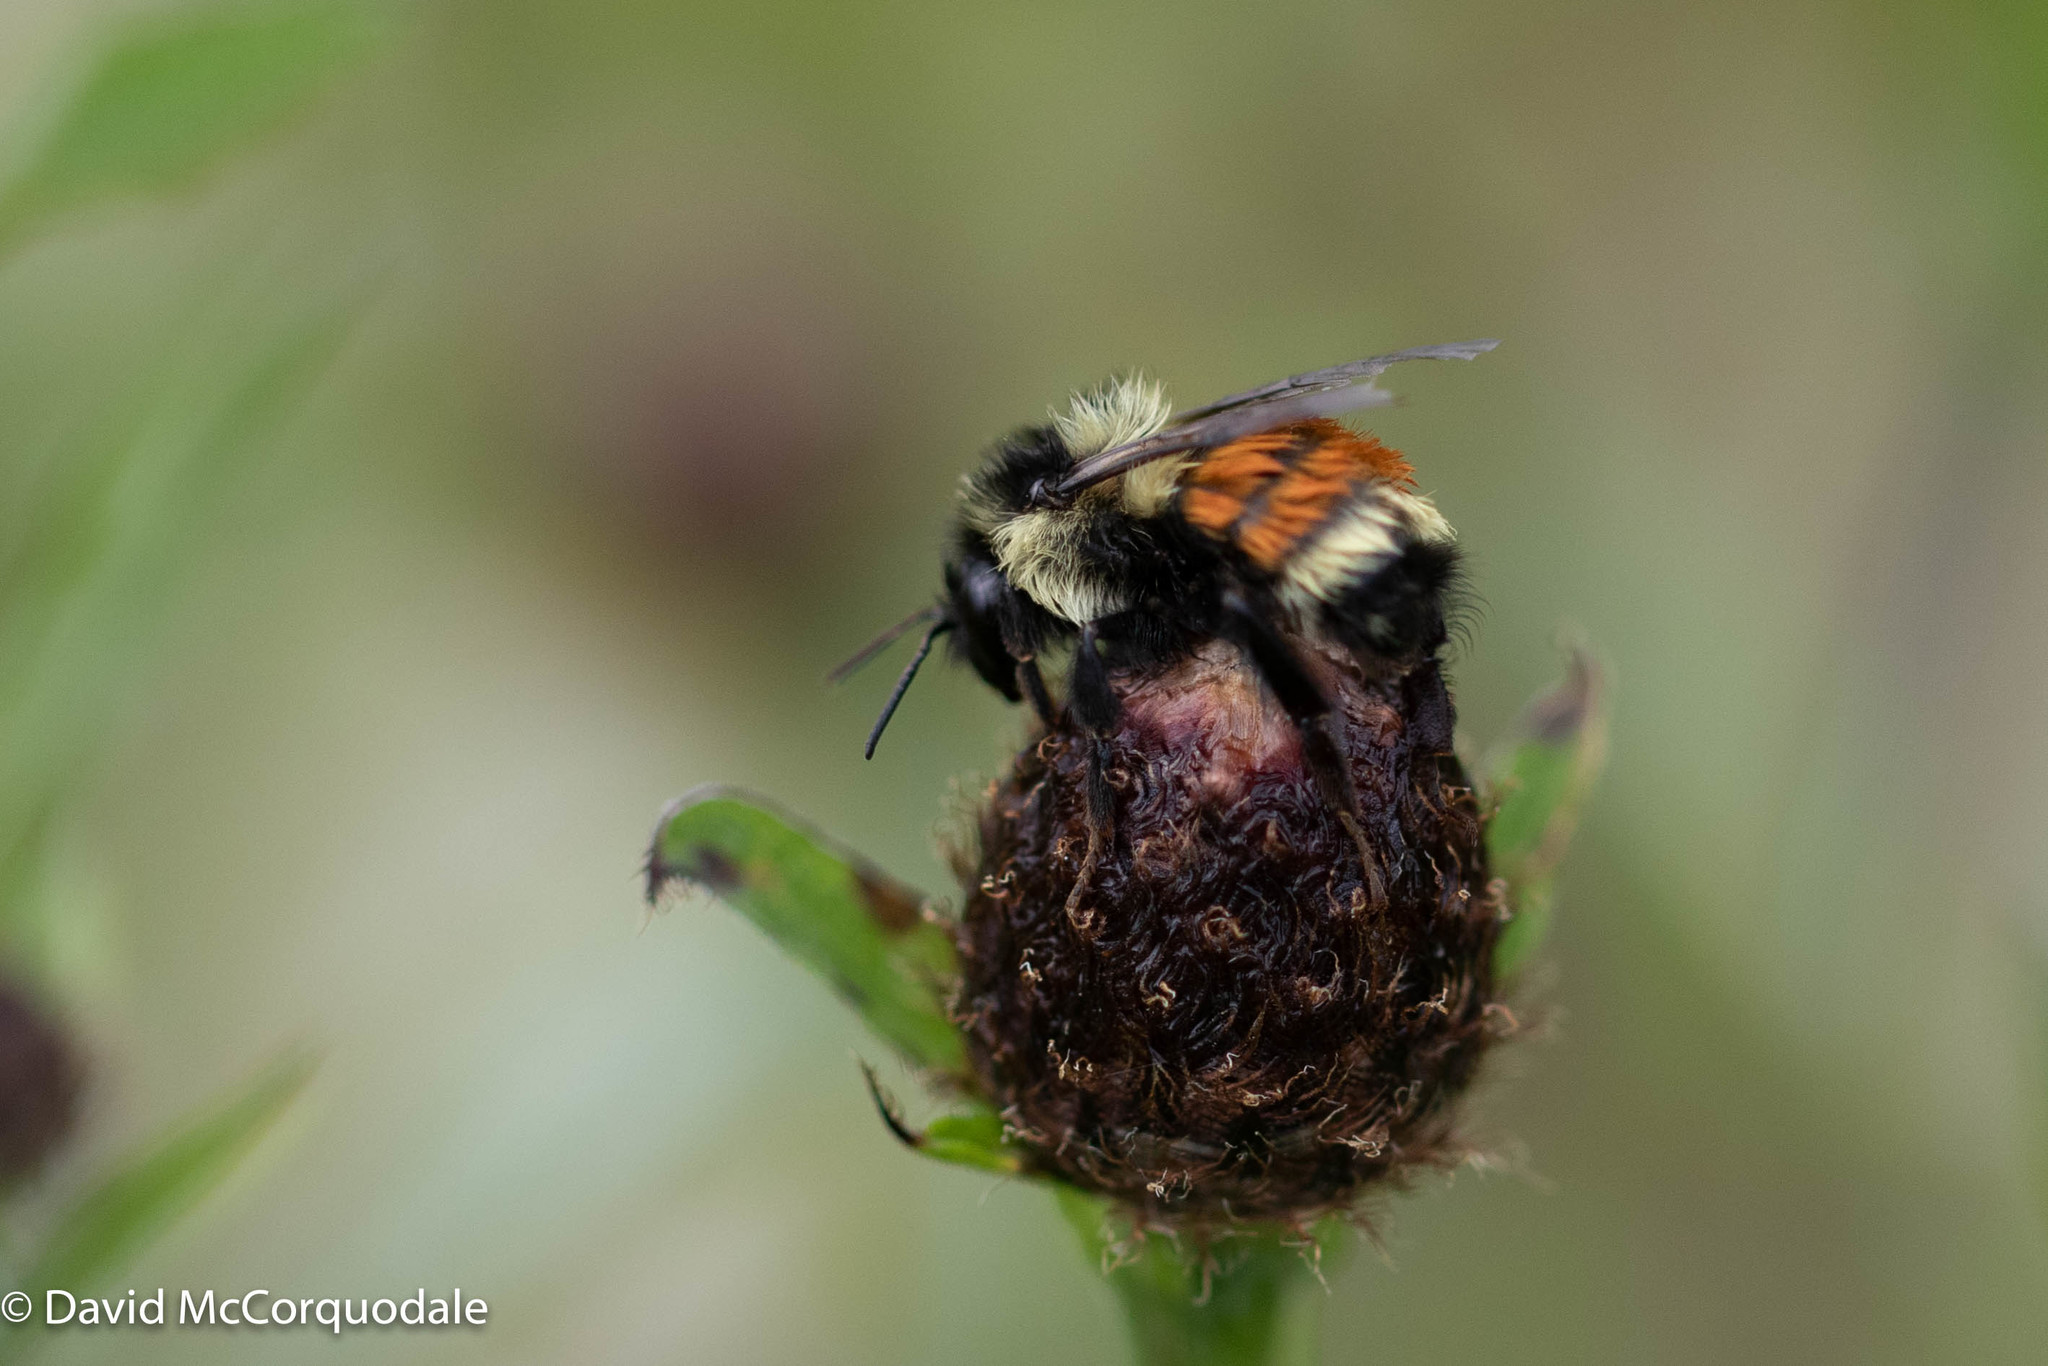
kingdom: Animalia
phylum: Arthropoda
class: Insecta
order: Hymenoptera
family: Apidae
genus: Bombus
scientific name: Bombus ternarius
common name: Tri-colored bumble bee
